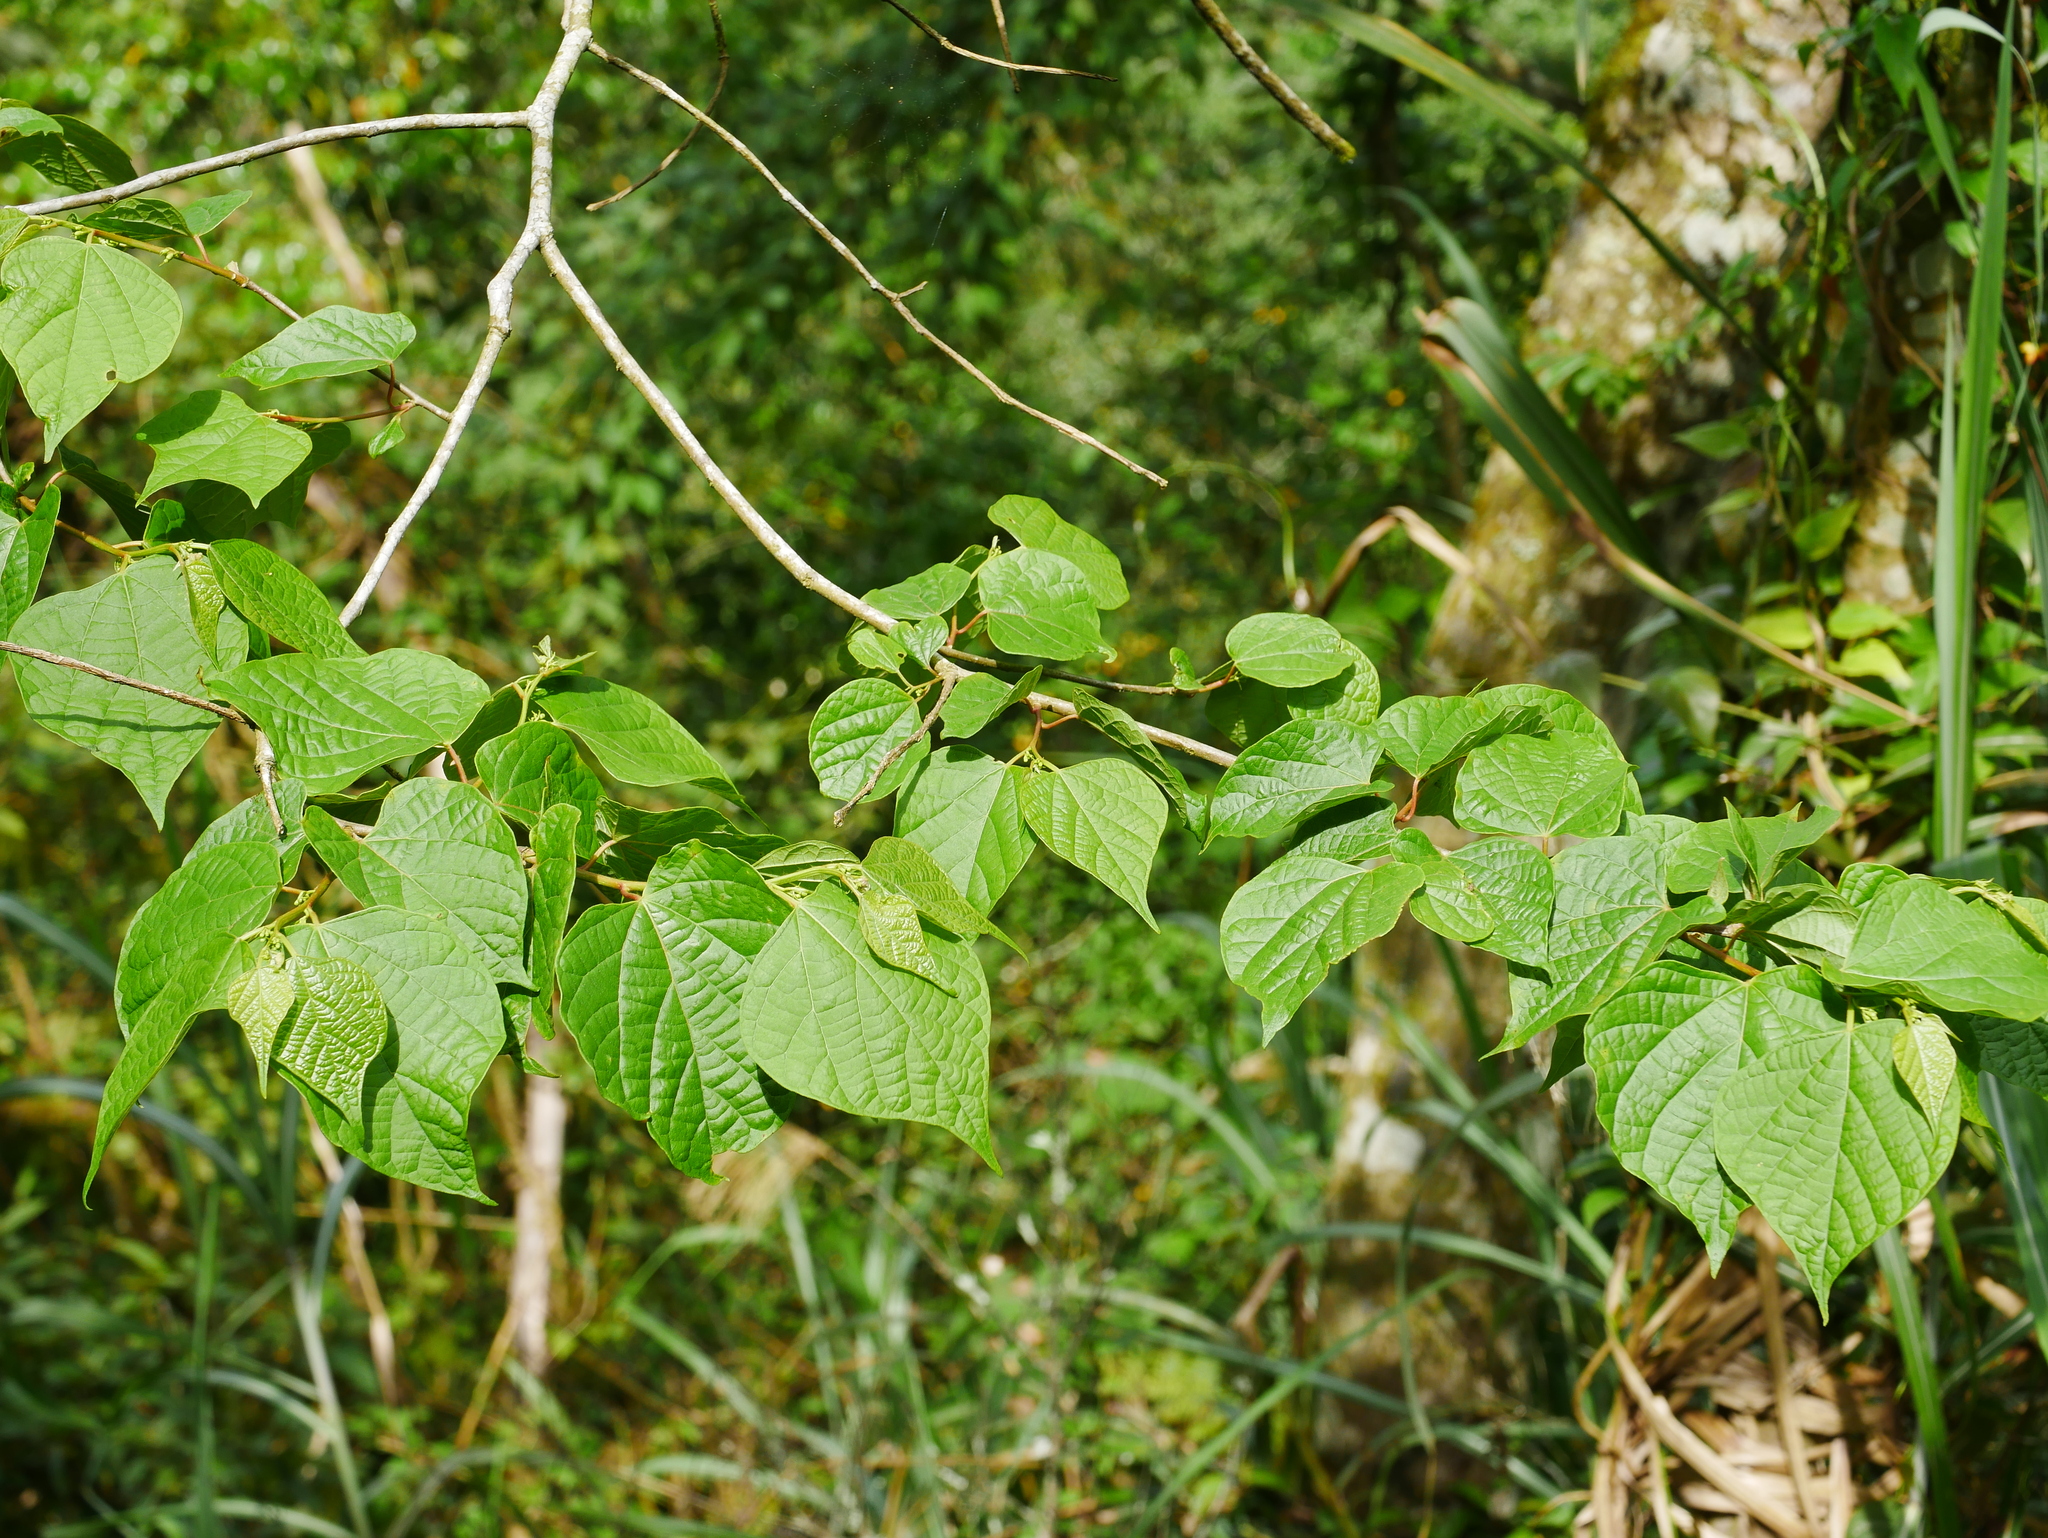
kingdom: Plantae
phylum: Tracheophyta
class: Magnoliopsida
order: Cornales
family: Cornaceae
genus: Alangium
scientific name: Alangium chinense
